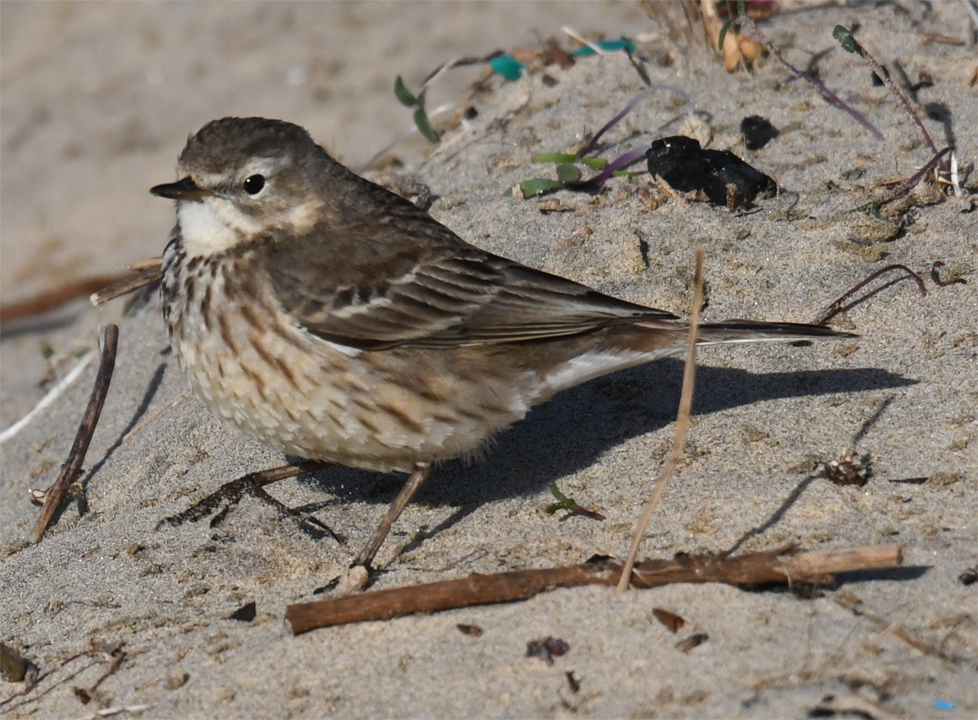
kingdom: Animalia
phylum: Chordata
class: Aves
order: Passeriformes
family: Motacillidae
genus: Anthus
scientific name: Anthus rubescens
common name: Buff-bellied pipit
